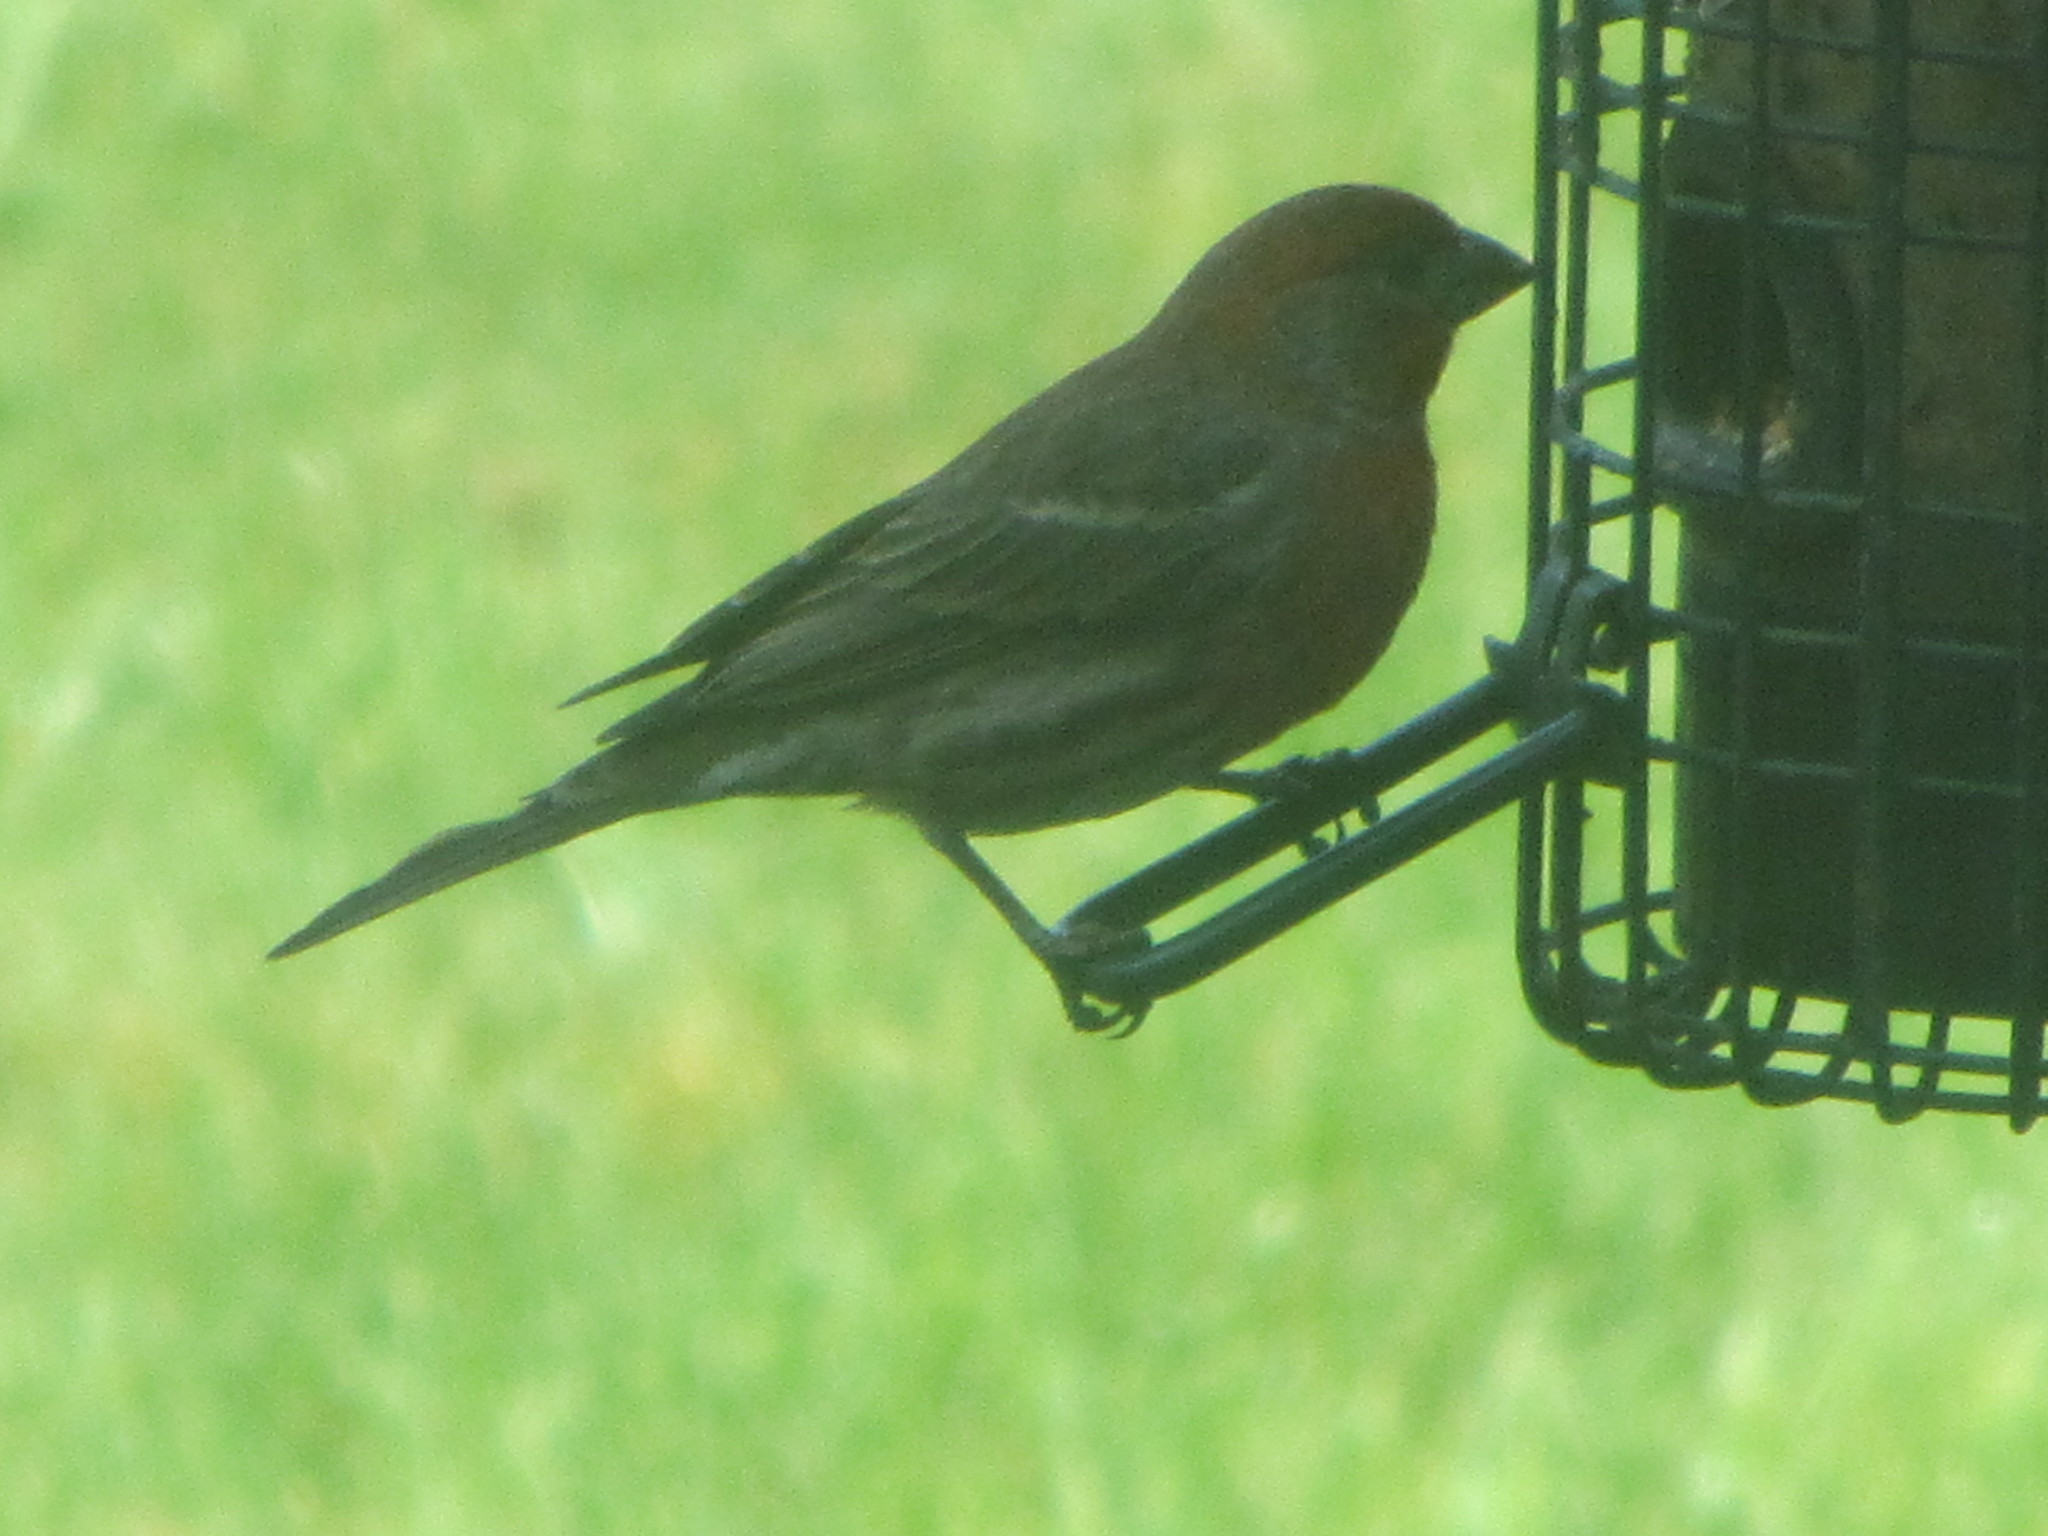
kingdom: Animalia
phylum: Chordata
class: Aves
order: Passeriformes
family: Fringillidae
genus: Haemorhous
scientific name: Haemorhous mexicanus
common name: House finch
